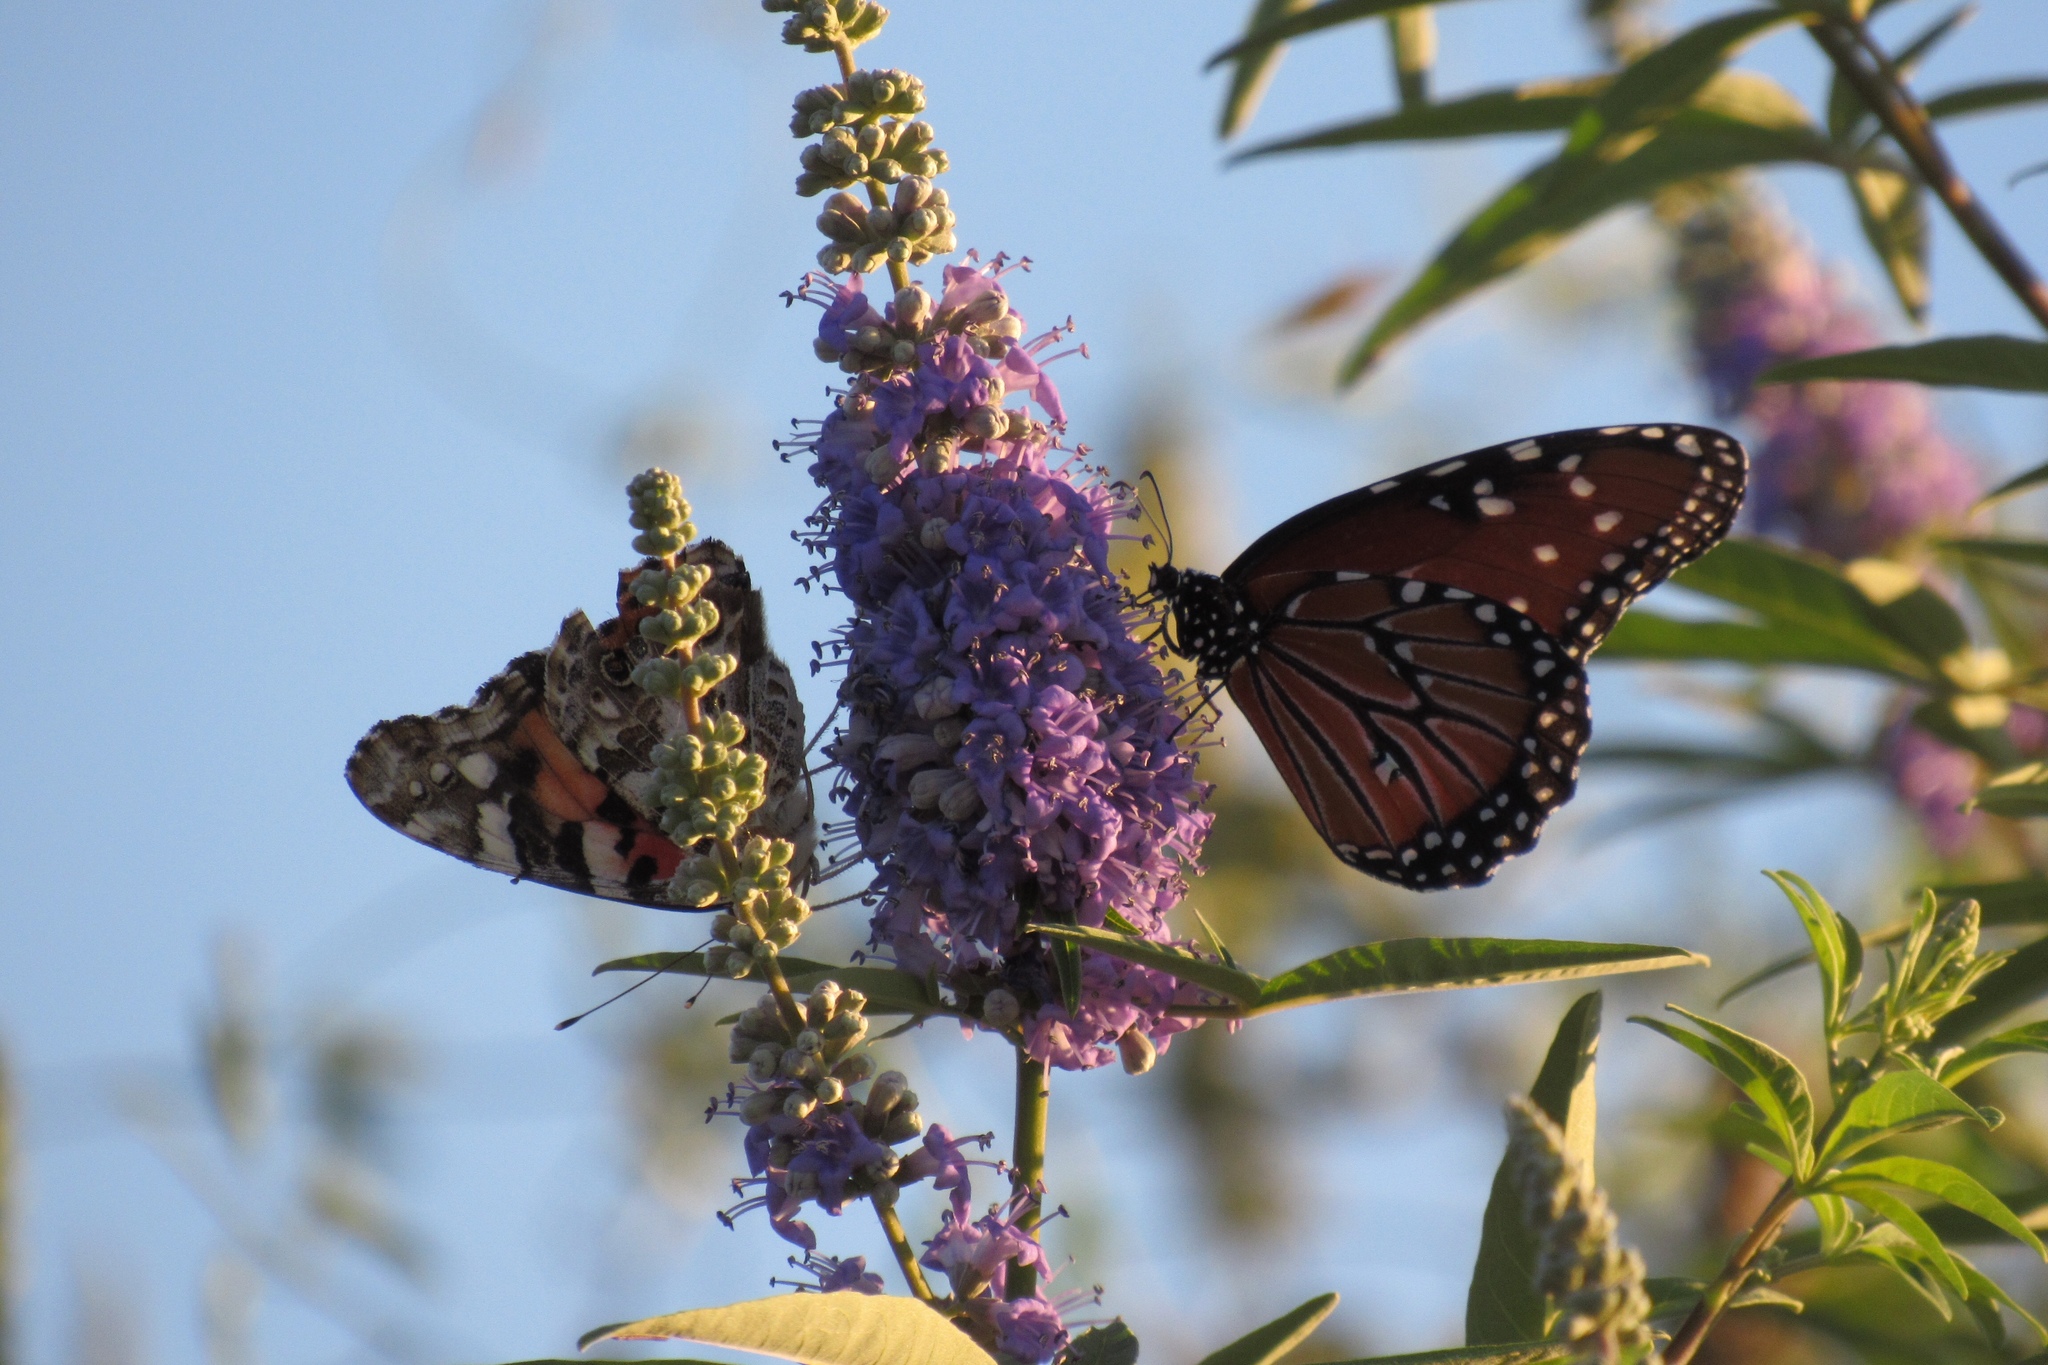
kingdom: Animalia
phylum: Arthropoda
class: Insecta
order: Lepidoptera
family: Nymphalidae
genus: Danaus
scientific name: Danaus gilippus
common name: Queen
